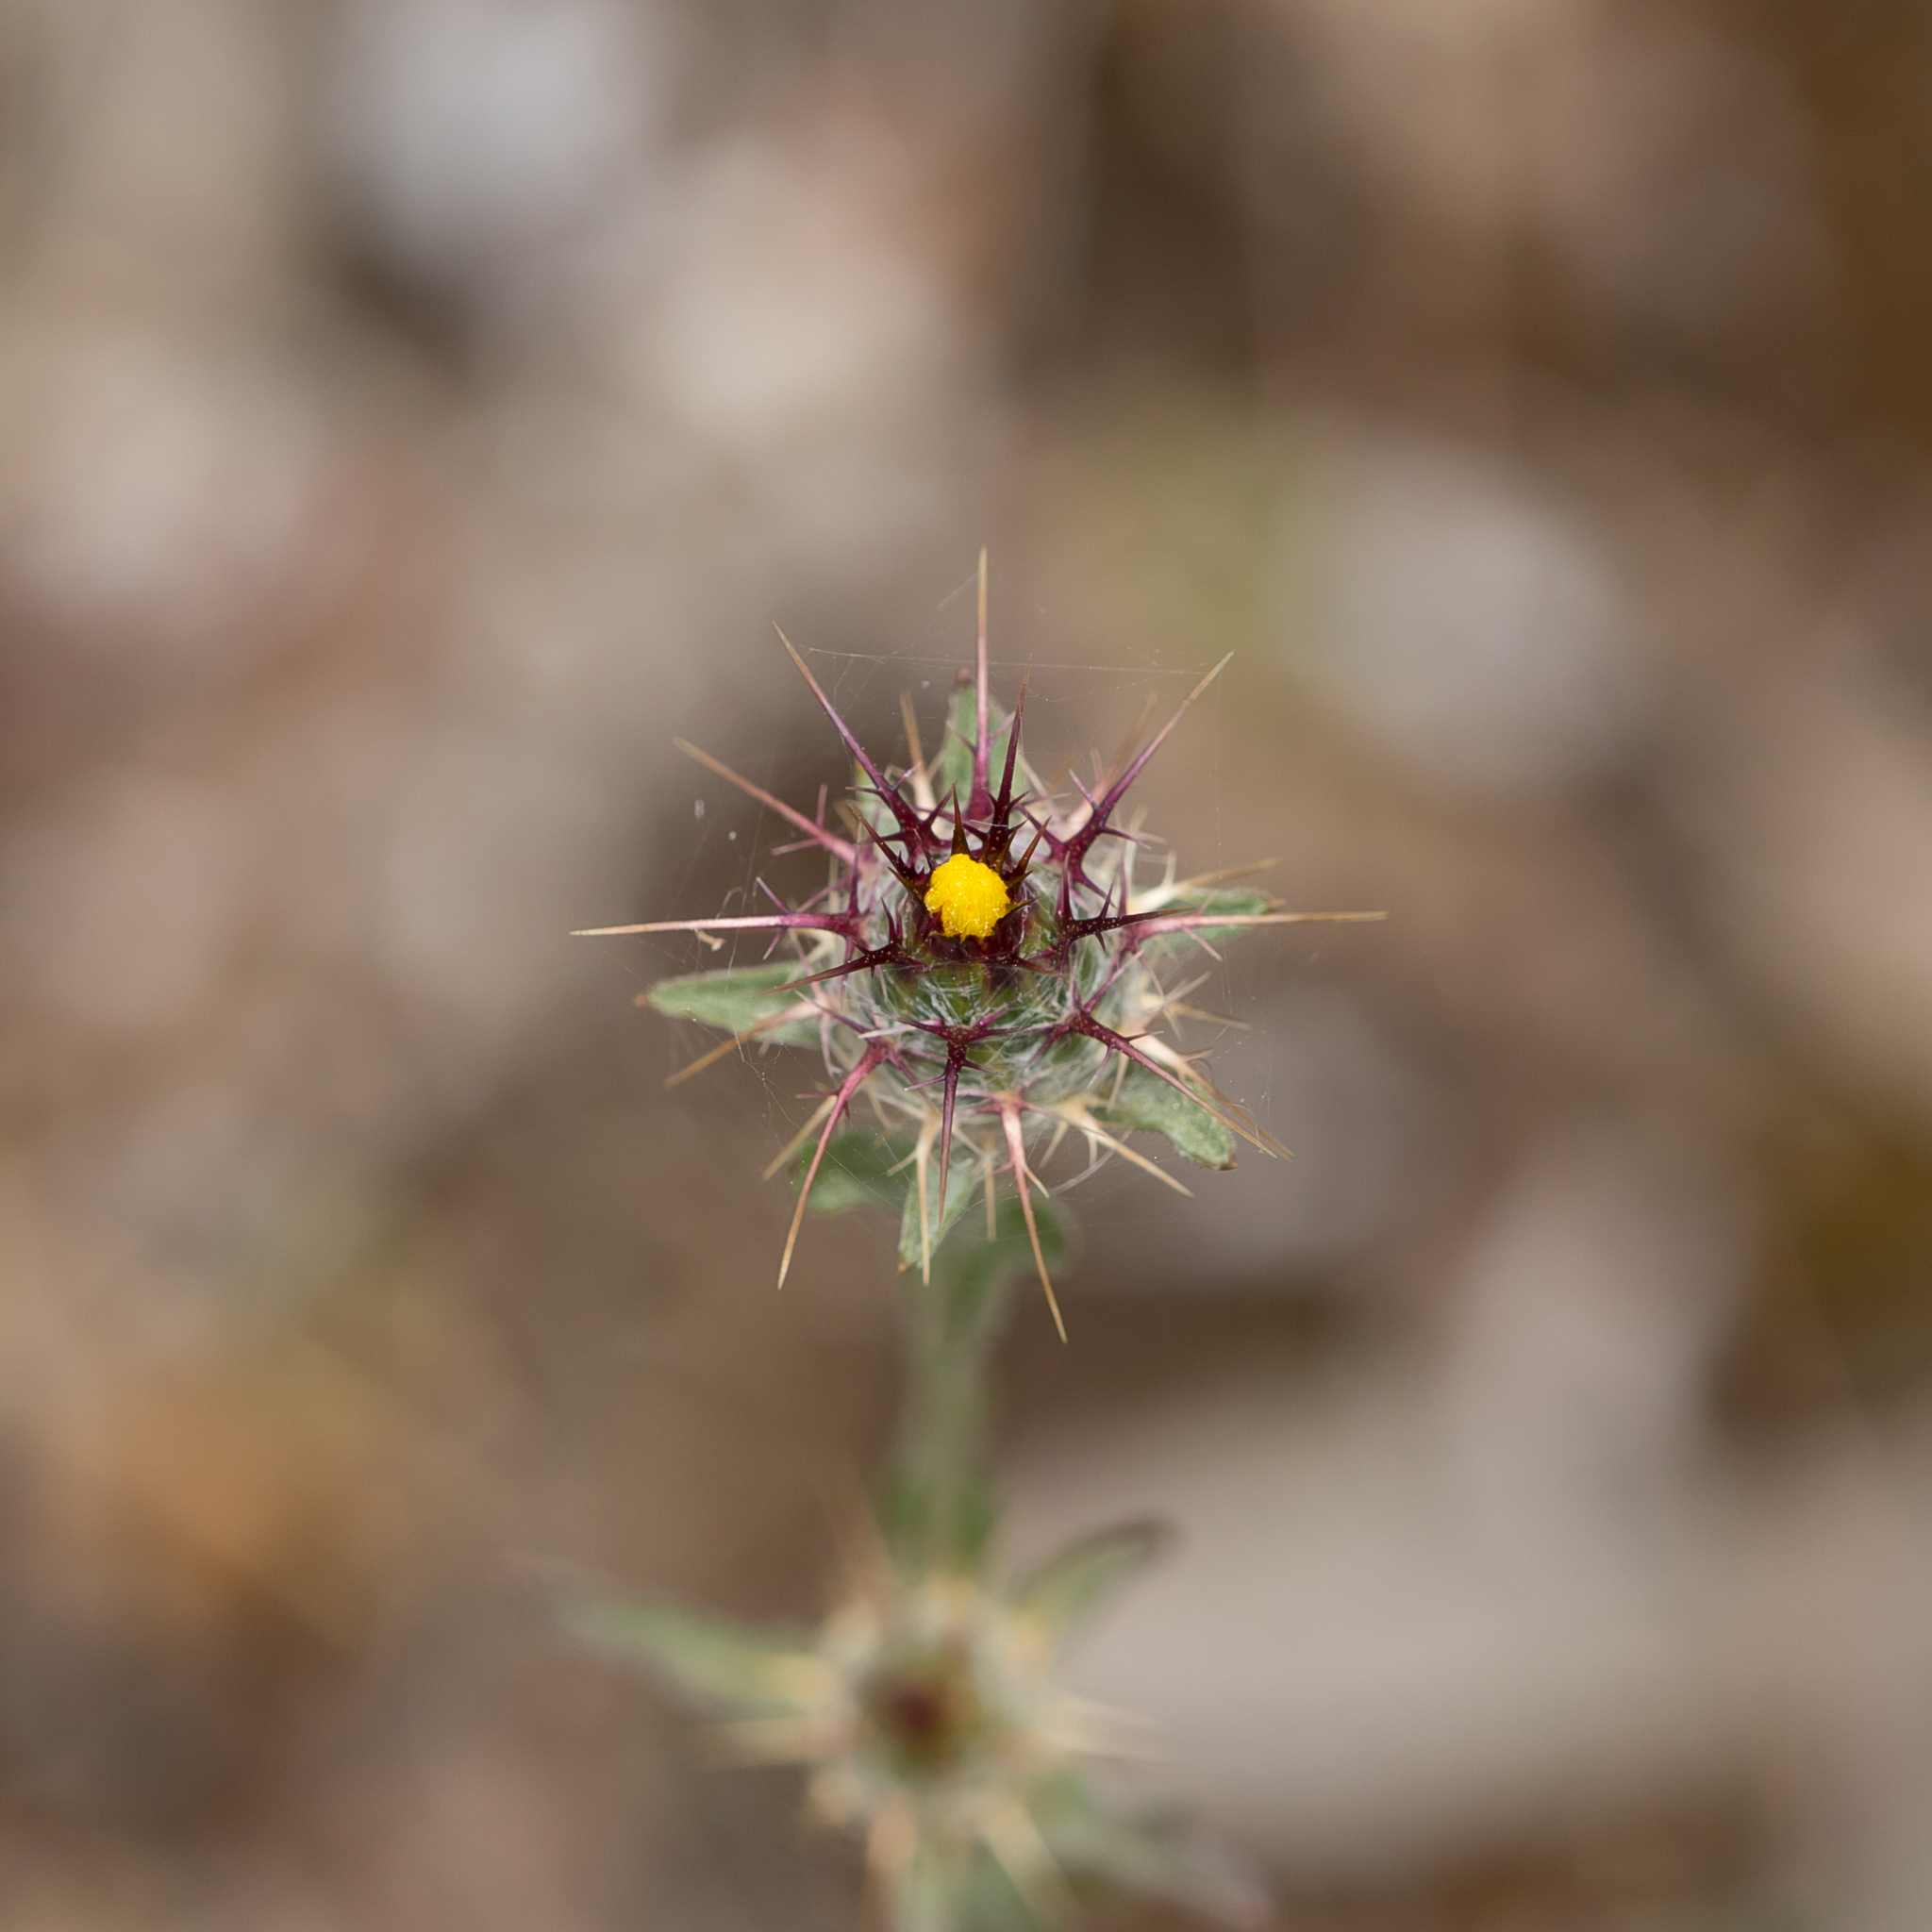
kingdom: Plantae
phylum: Tracheophyta
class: Magnoliopsida
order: Asterales
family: Asteraceae
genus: Centaurea
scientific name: Centaurea melitensis
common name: Maltese star-thistle
